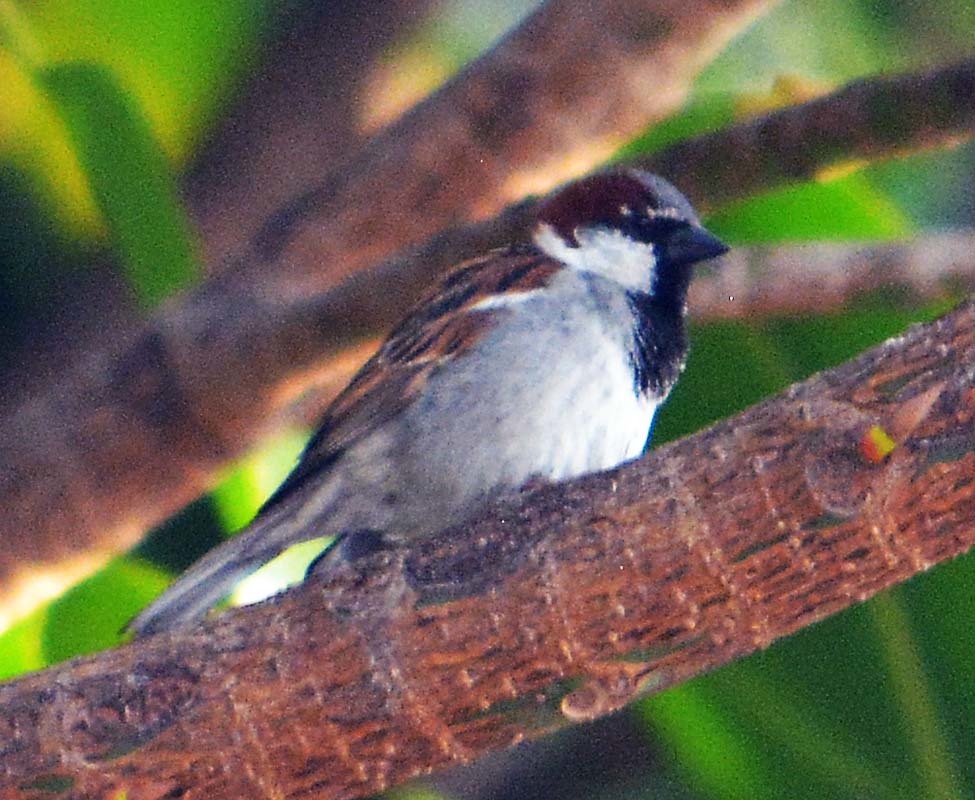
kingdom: Animalia
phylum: Chordata
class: Aves
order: Passeriformes
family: Passeridae
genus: Passer
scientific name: Passer domesticus
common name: House sparrow
